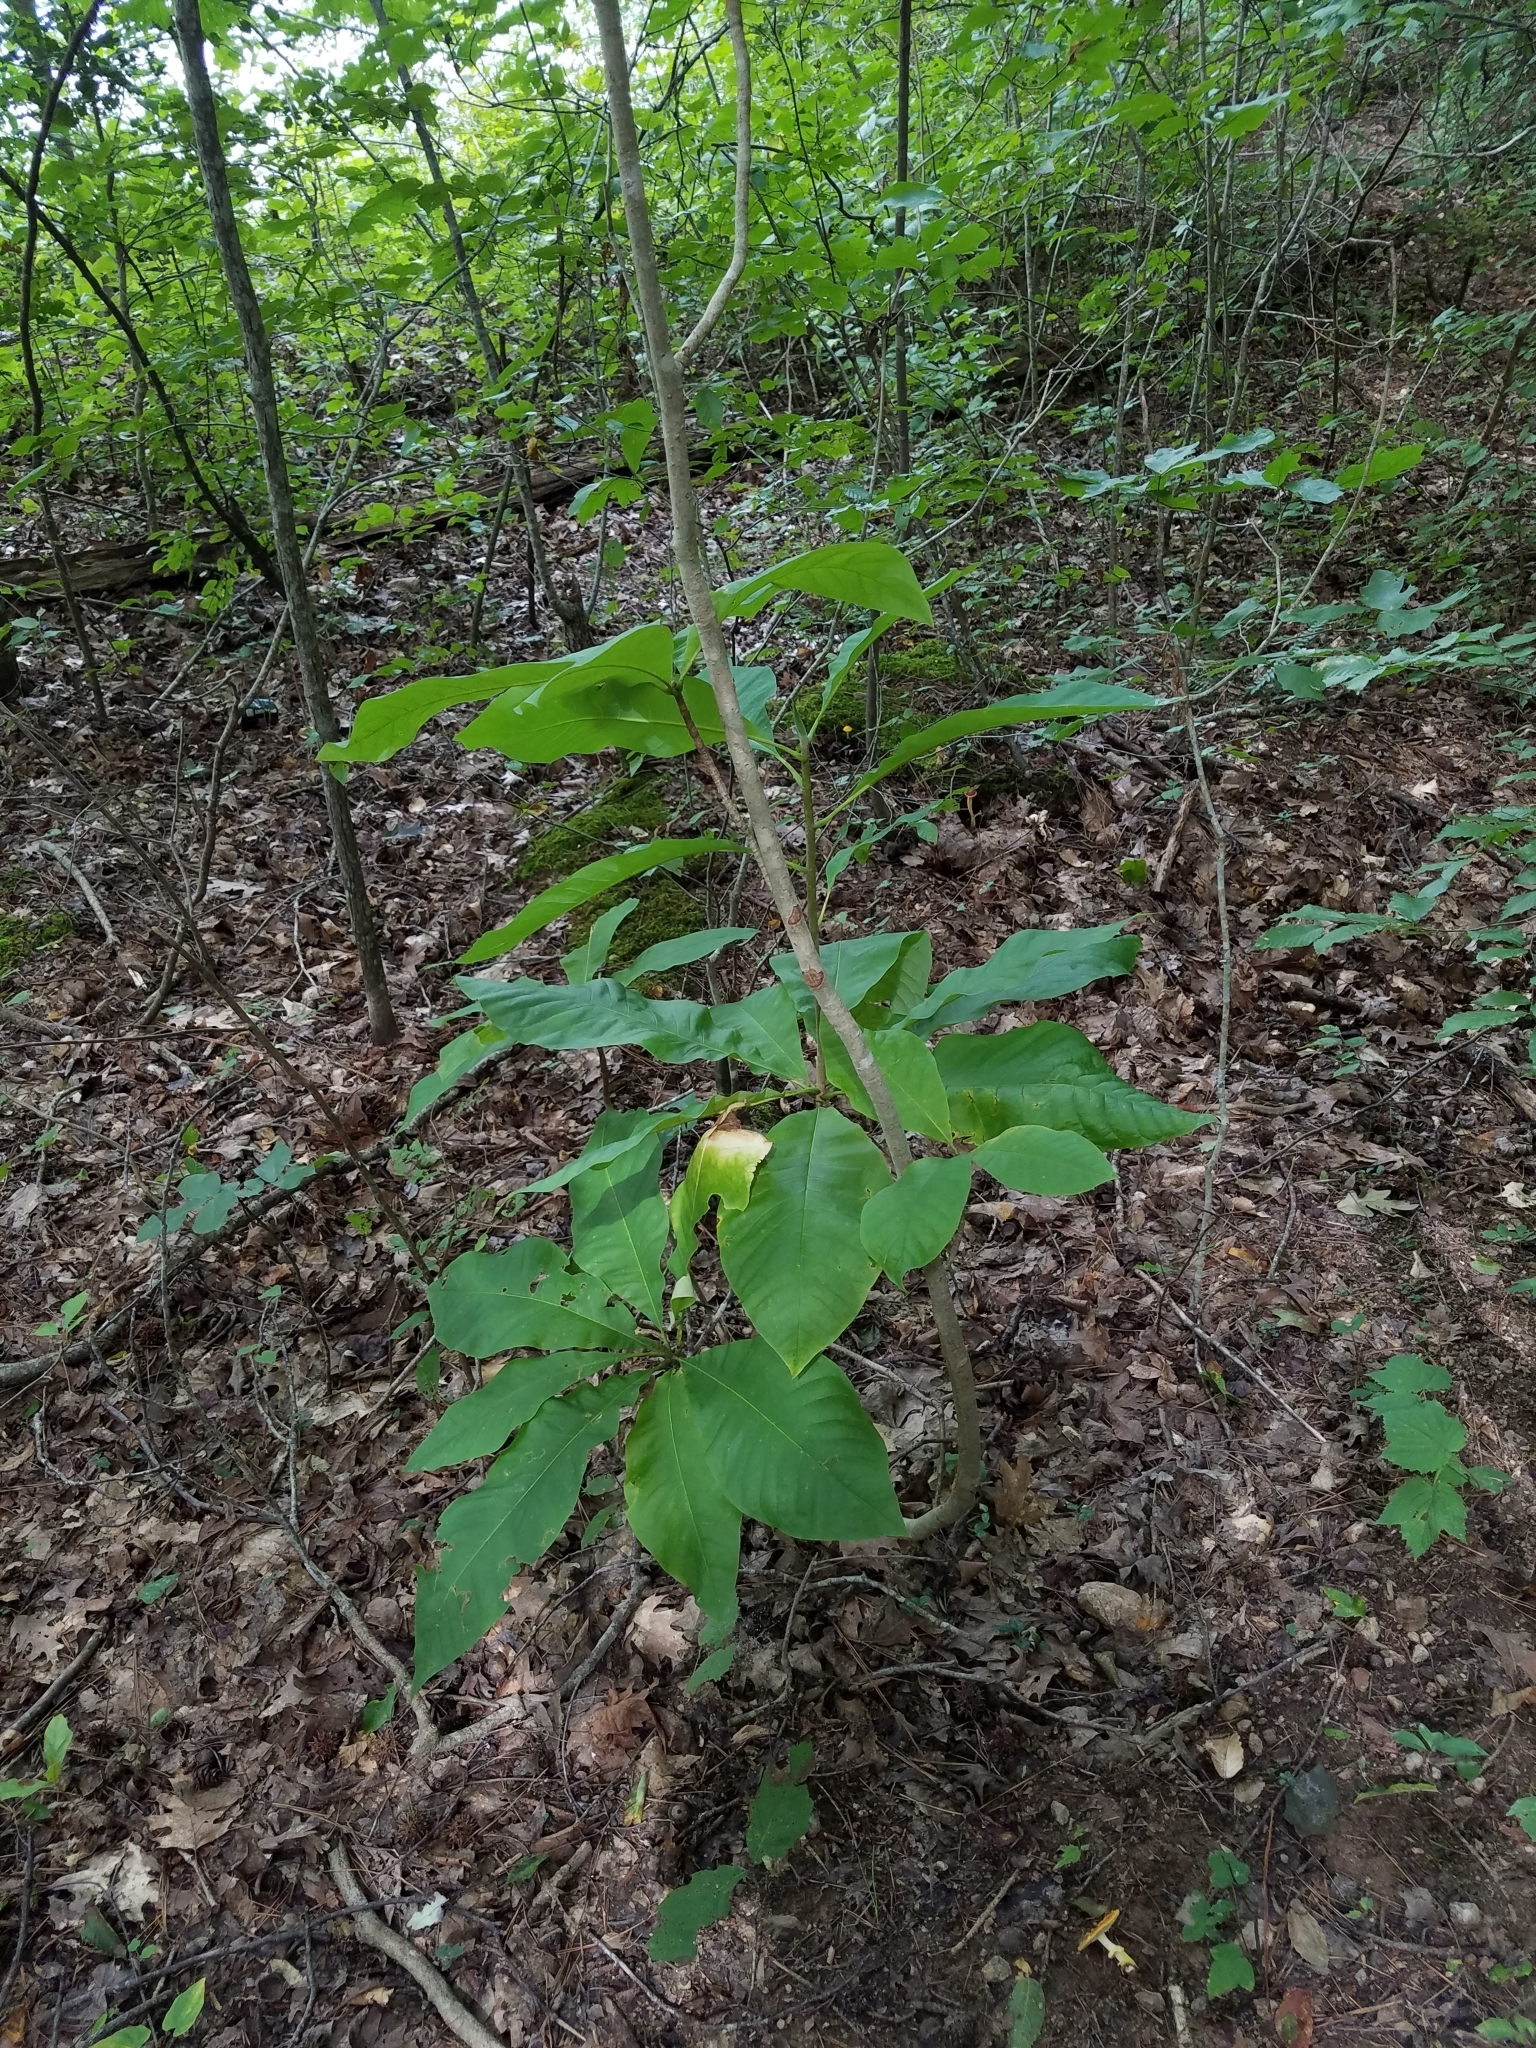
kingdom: Plantae
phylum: Tracheophyta
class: Magnoliopsida
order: Magnoliales
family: Magnoliaceae
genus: Magnolia
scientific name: Magnolia tripetala
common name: Umbrella magnolia
